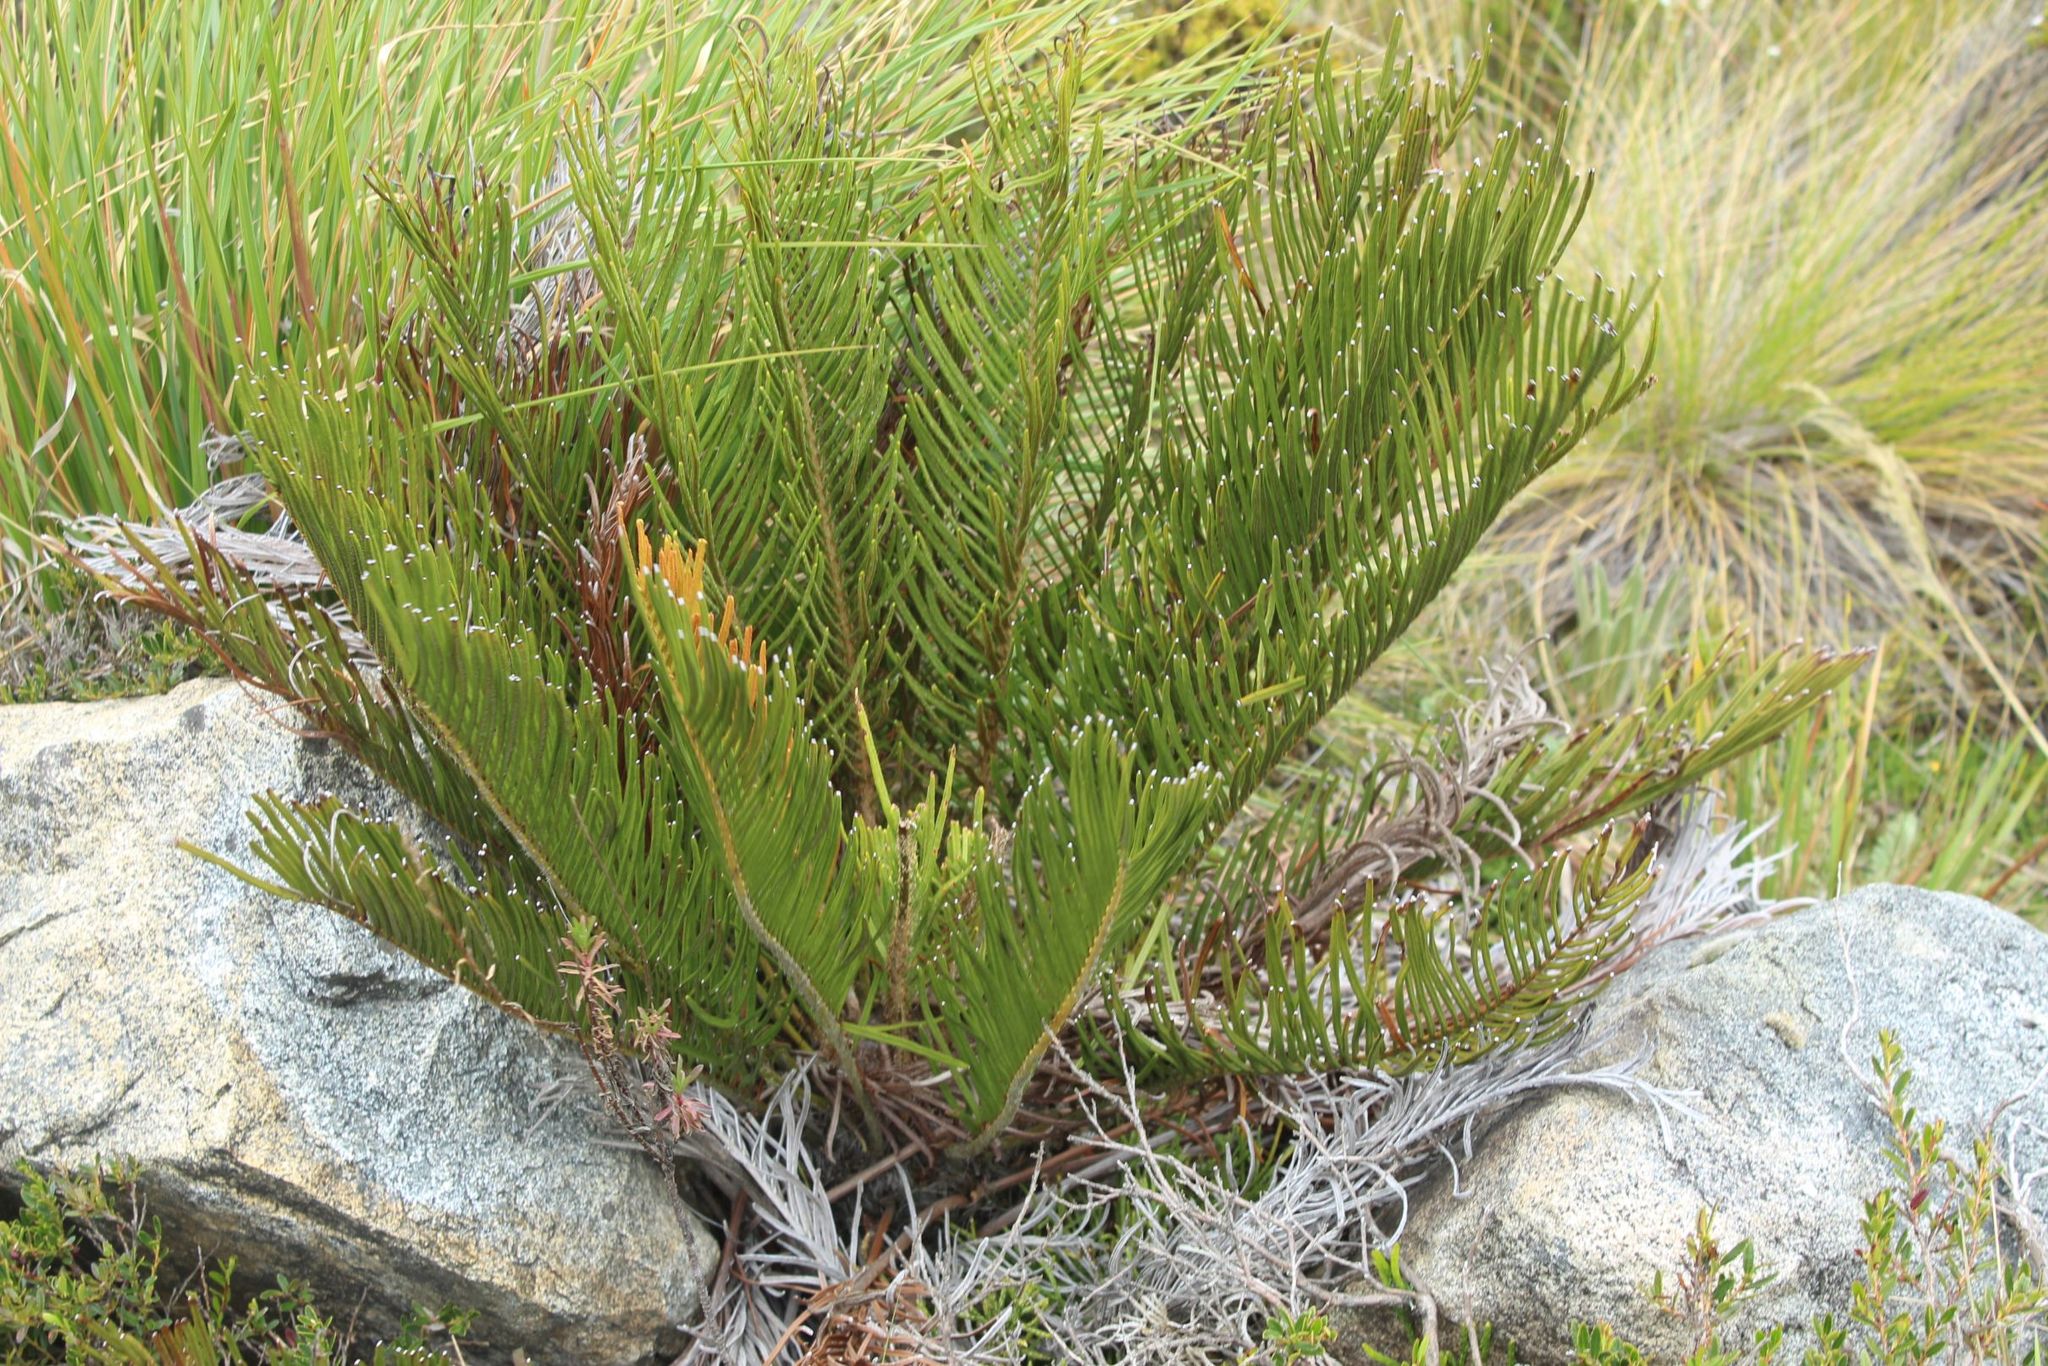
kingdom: Plantae
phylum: Tracheophyta
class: Polypodiopsida
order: Polypodiales
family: Blechnaceae
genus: Lomariocycas
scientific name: Lomariocycas aurata
